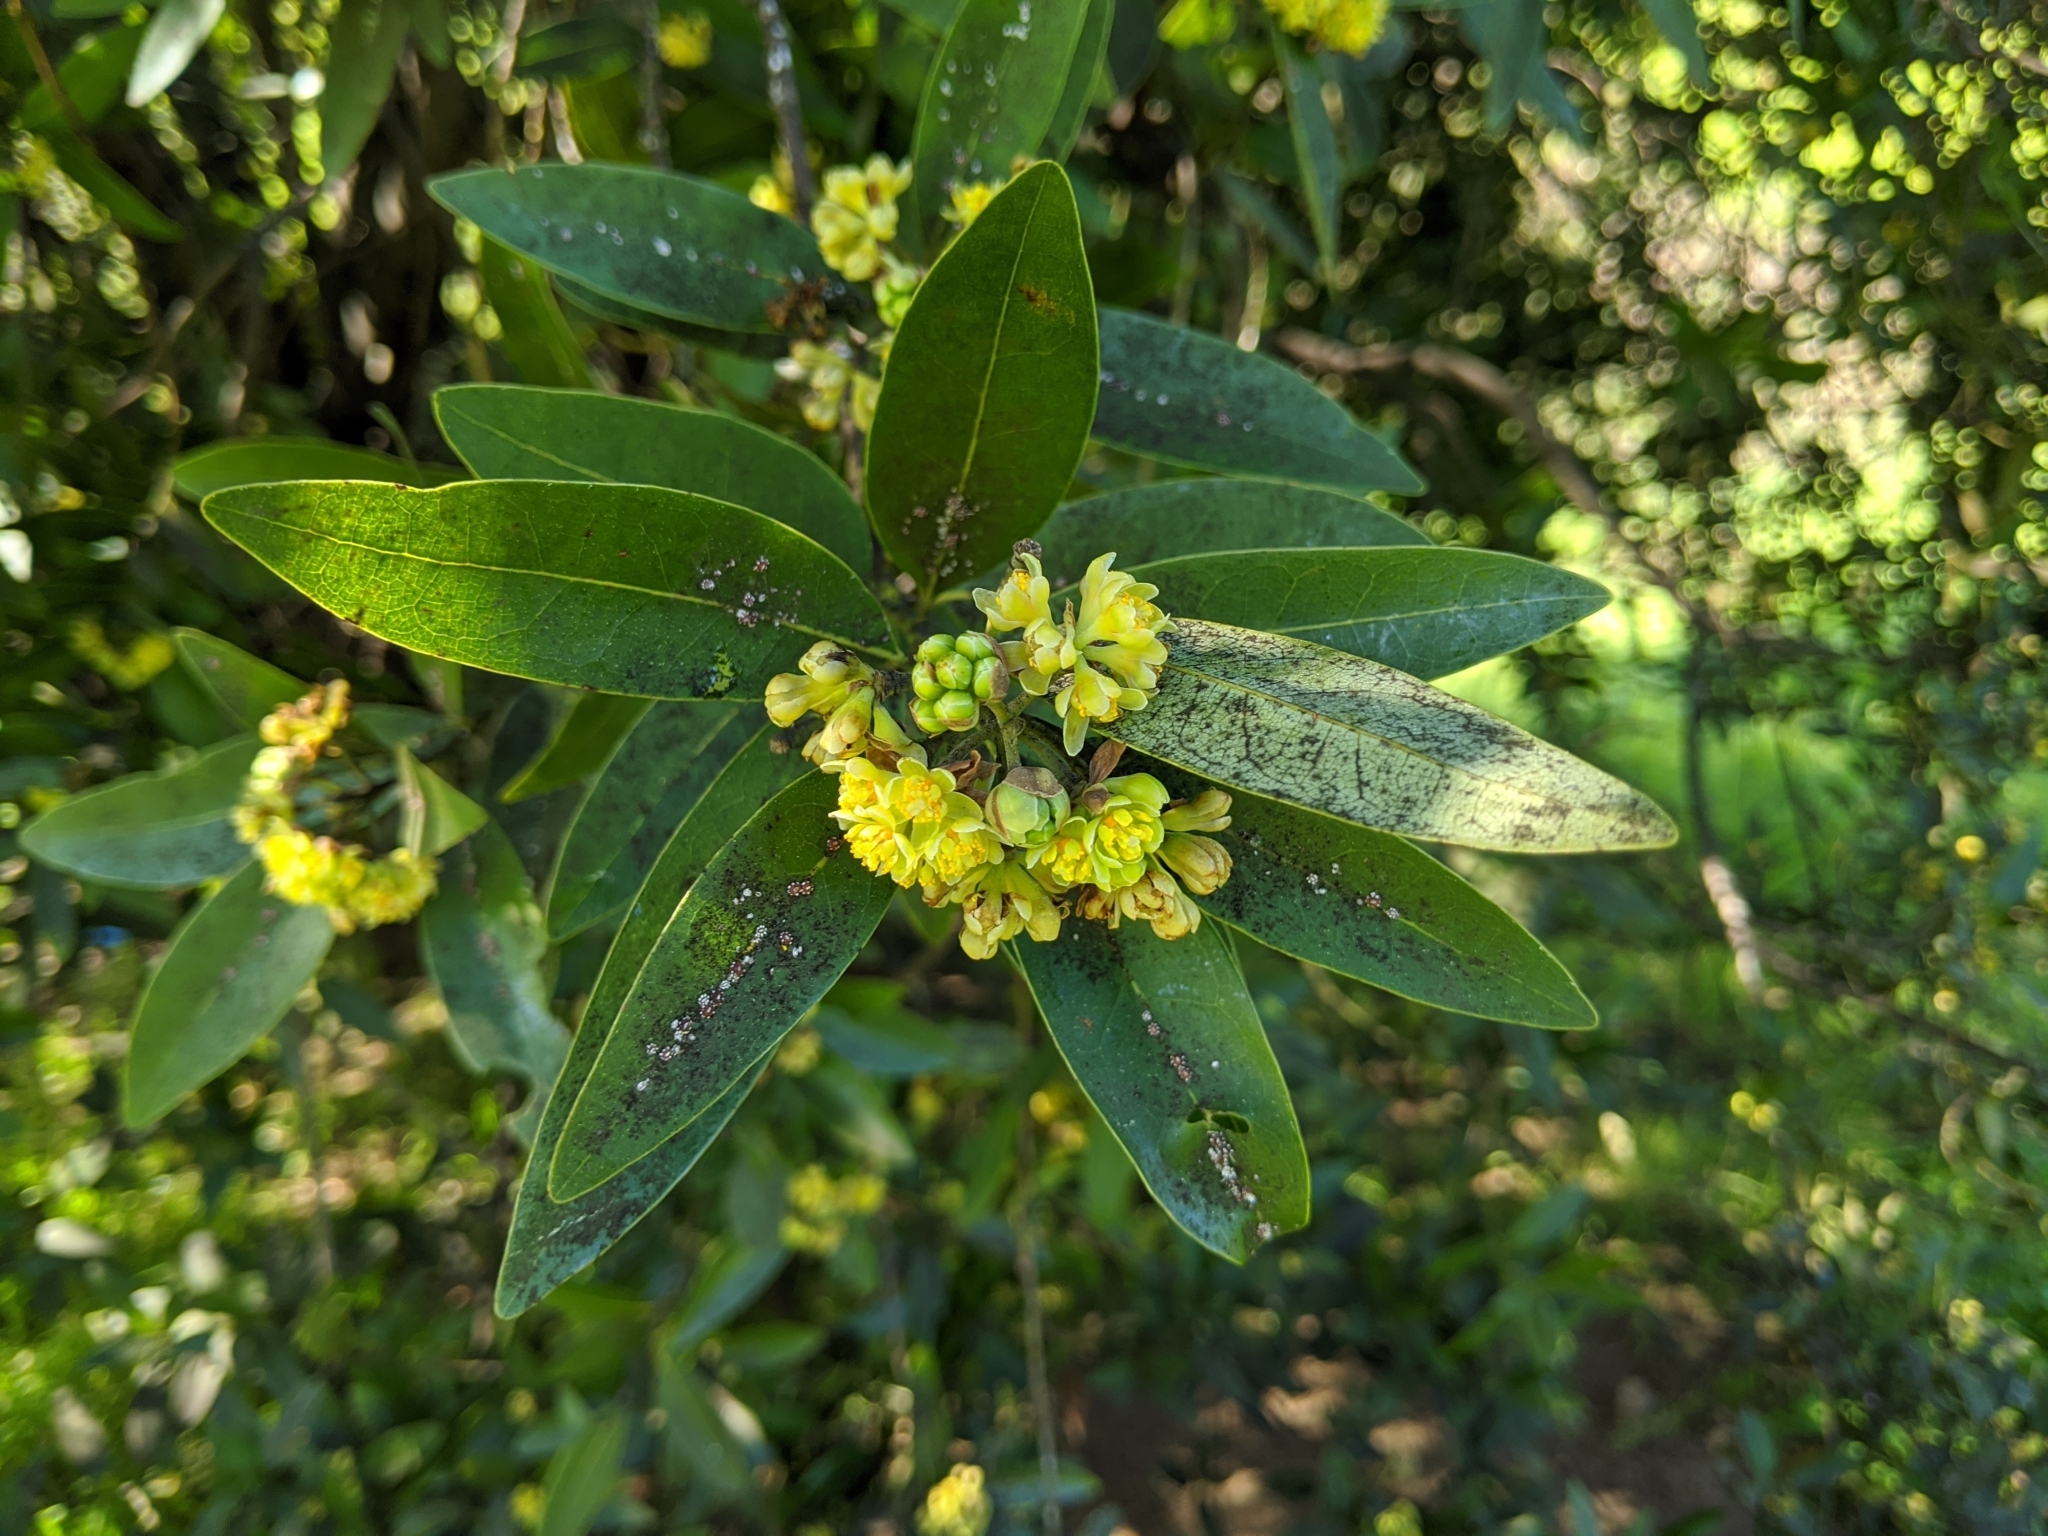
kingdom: Plantae
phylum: Tracheophyta
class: Magnoliopsida
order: Laurales
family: Lauraceae
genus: Umbellularia
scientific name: Umbellularia californica
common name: California bay
